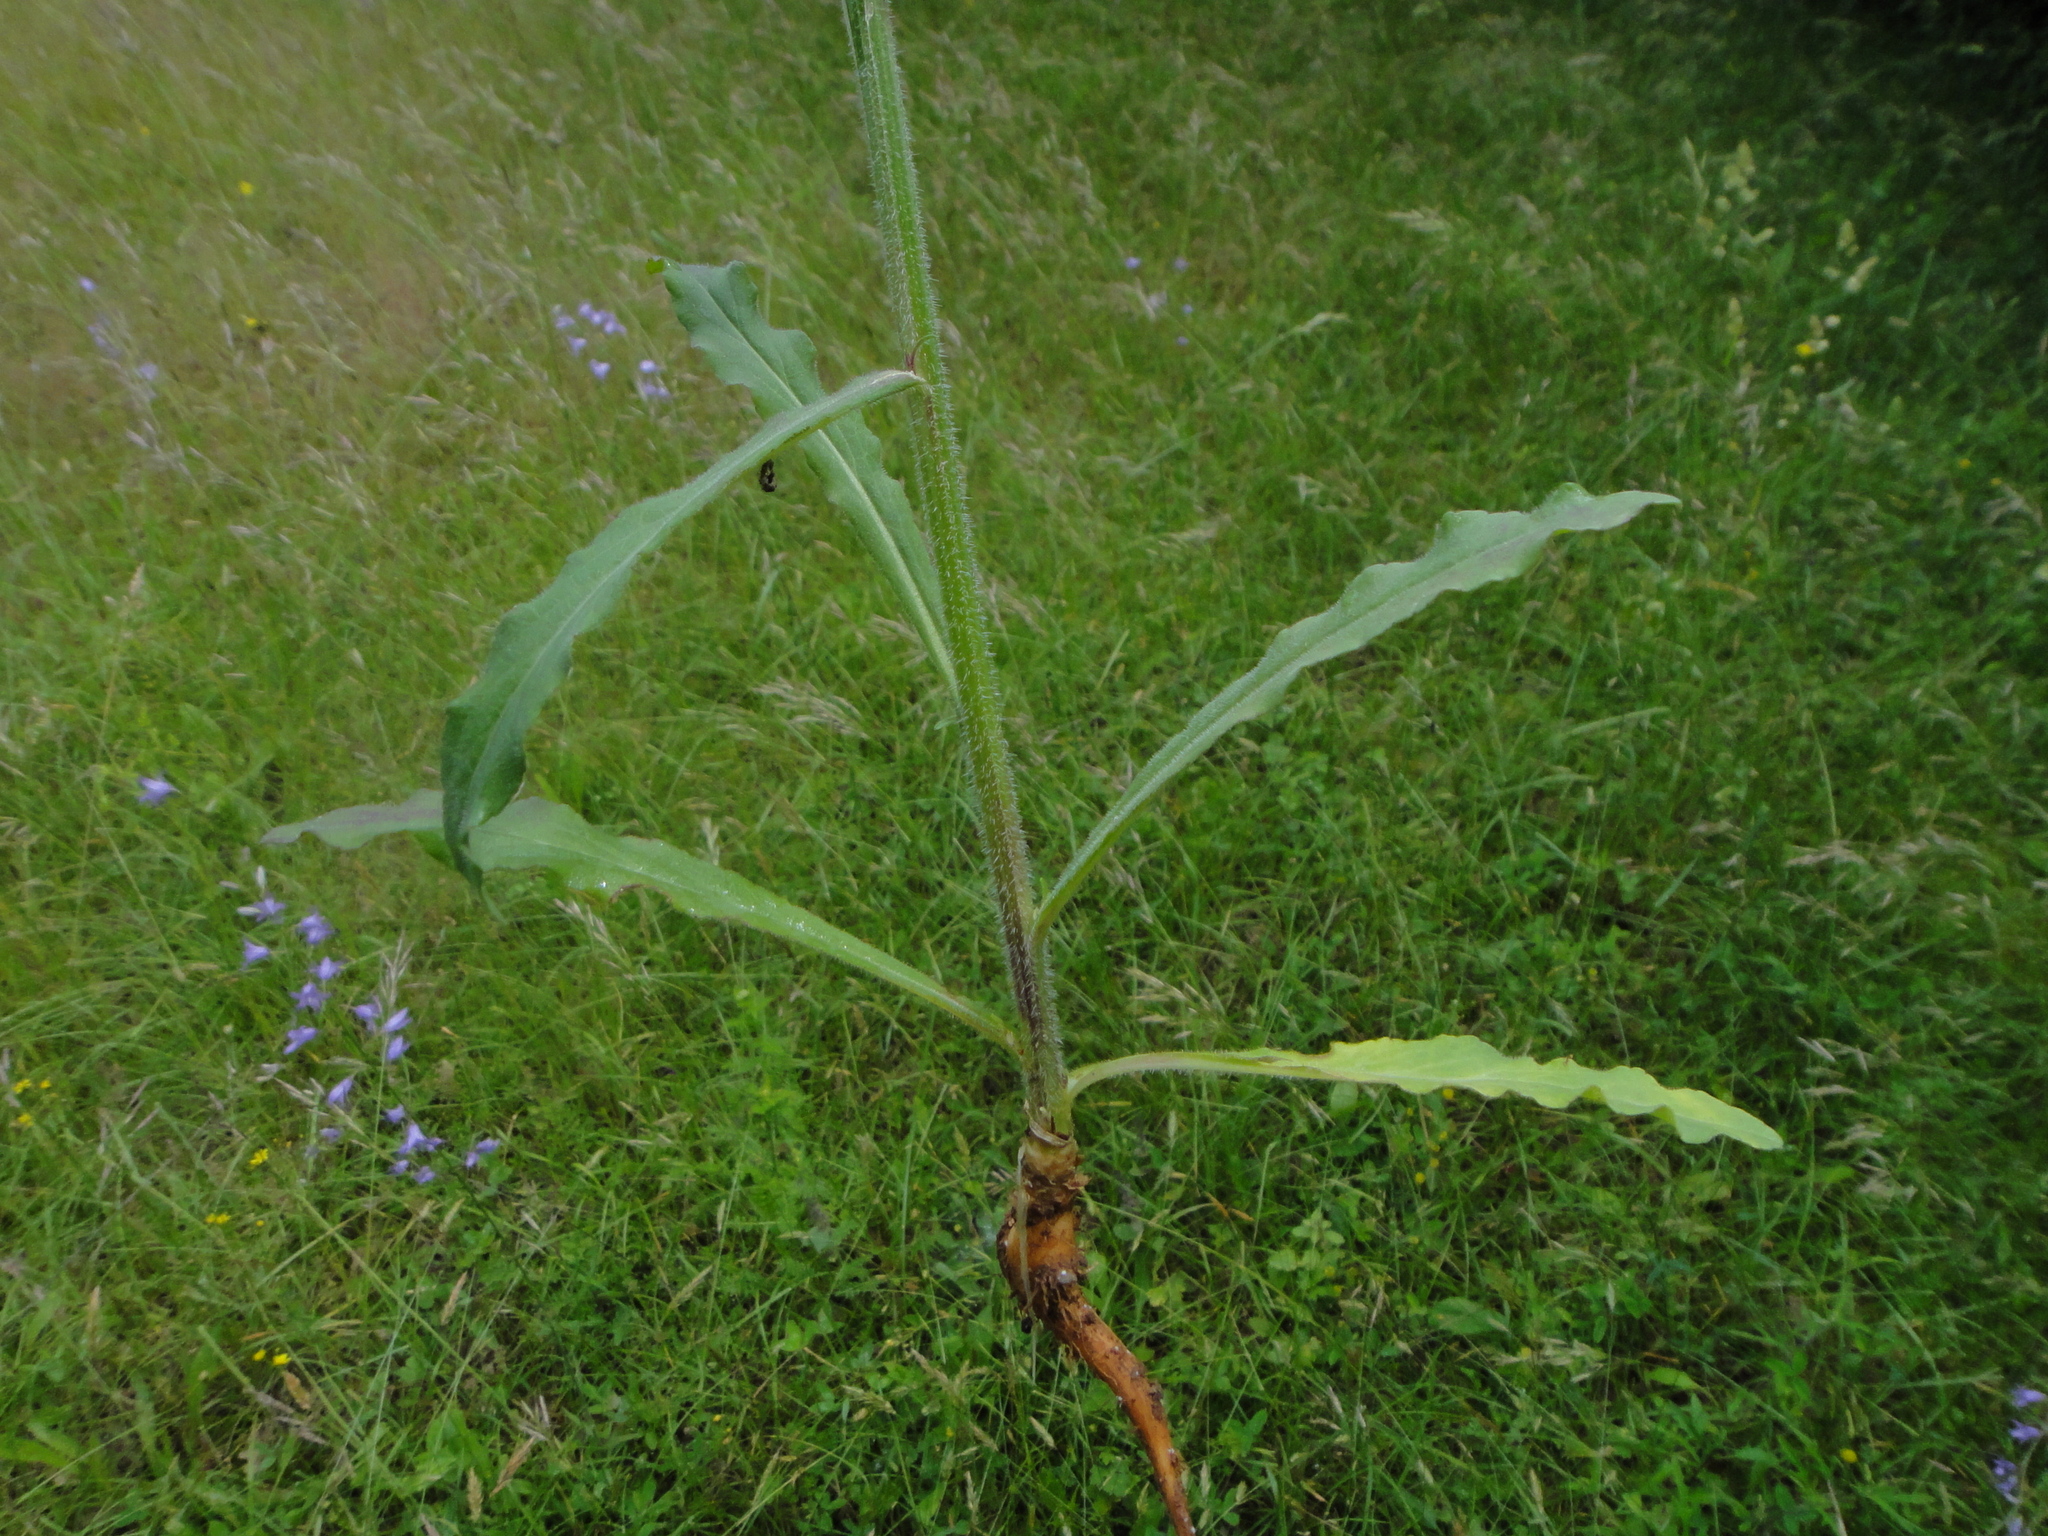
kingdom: Plantae
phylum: Tracheophyta
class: Magnoliopsida
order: Asterales
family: Campanulaceae
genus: Campanula
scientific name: Campanula rapunculus
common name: Rampion bellflower
